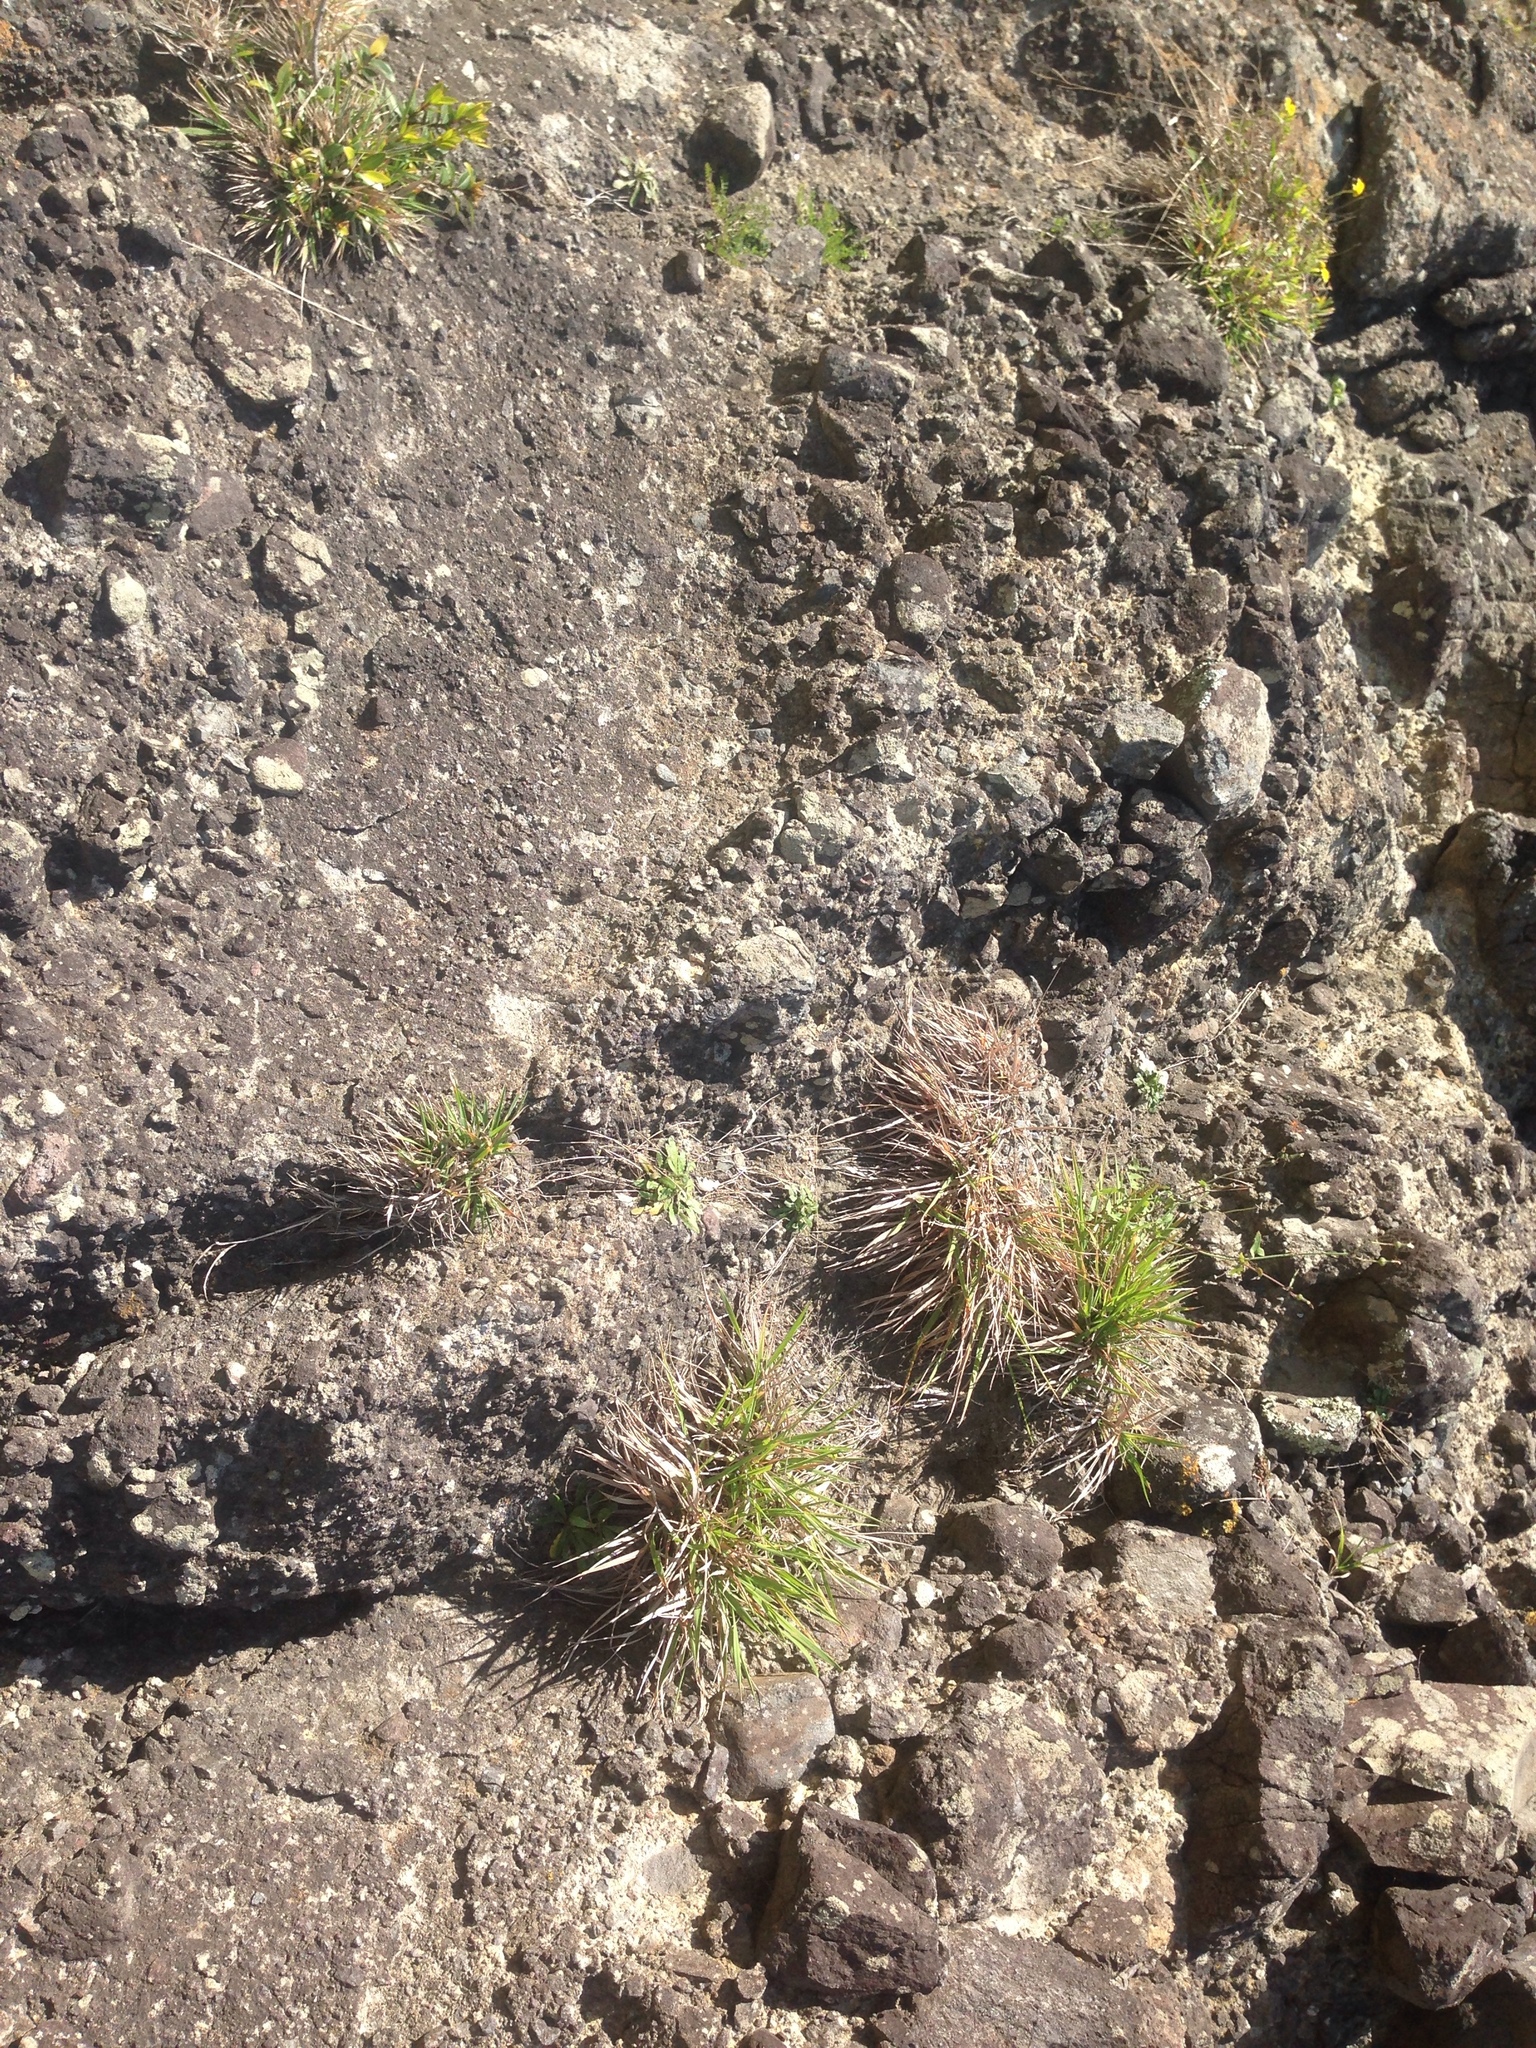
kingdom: Plantae
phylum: Tracheophyta
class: Liliopsida
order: Poales
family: Poaceae
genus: Lachnagrostis
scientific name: Lachnagrostis billardierei
